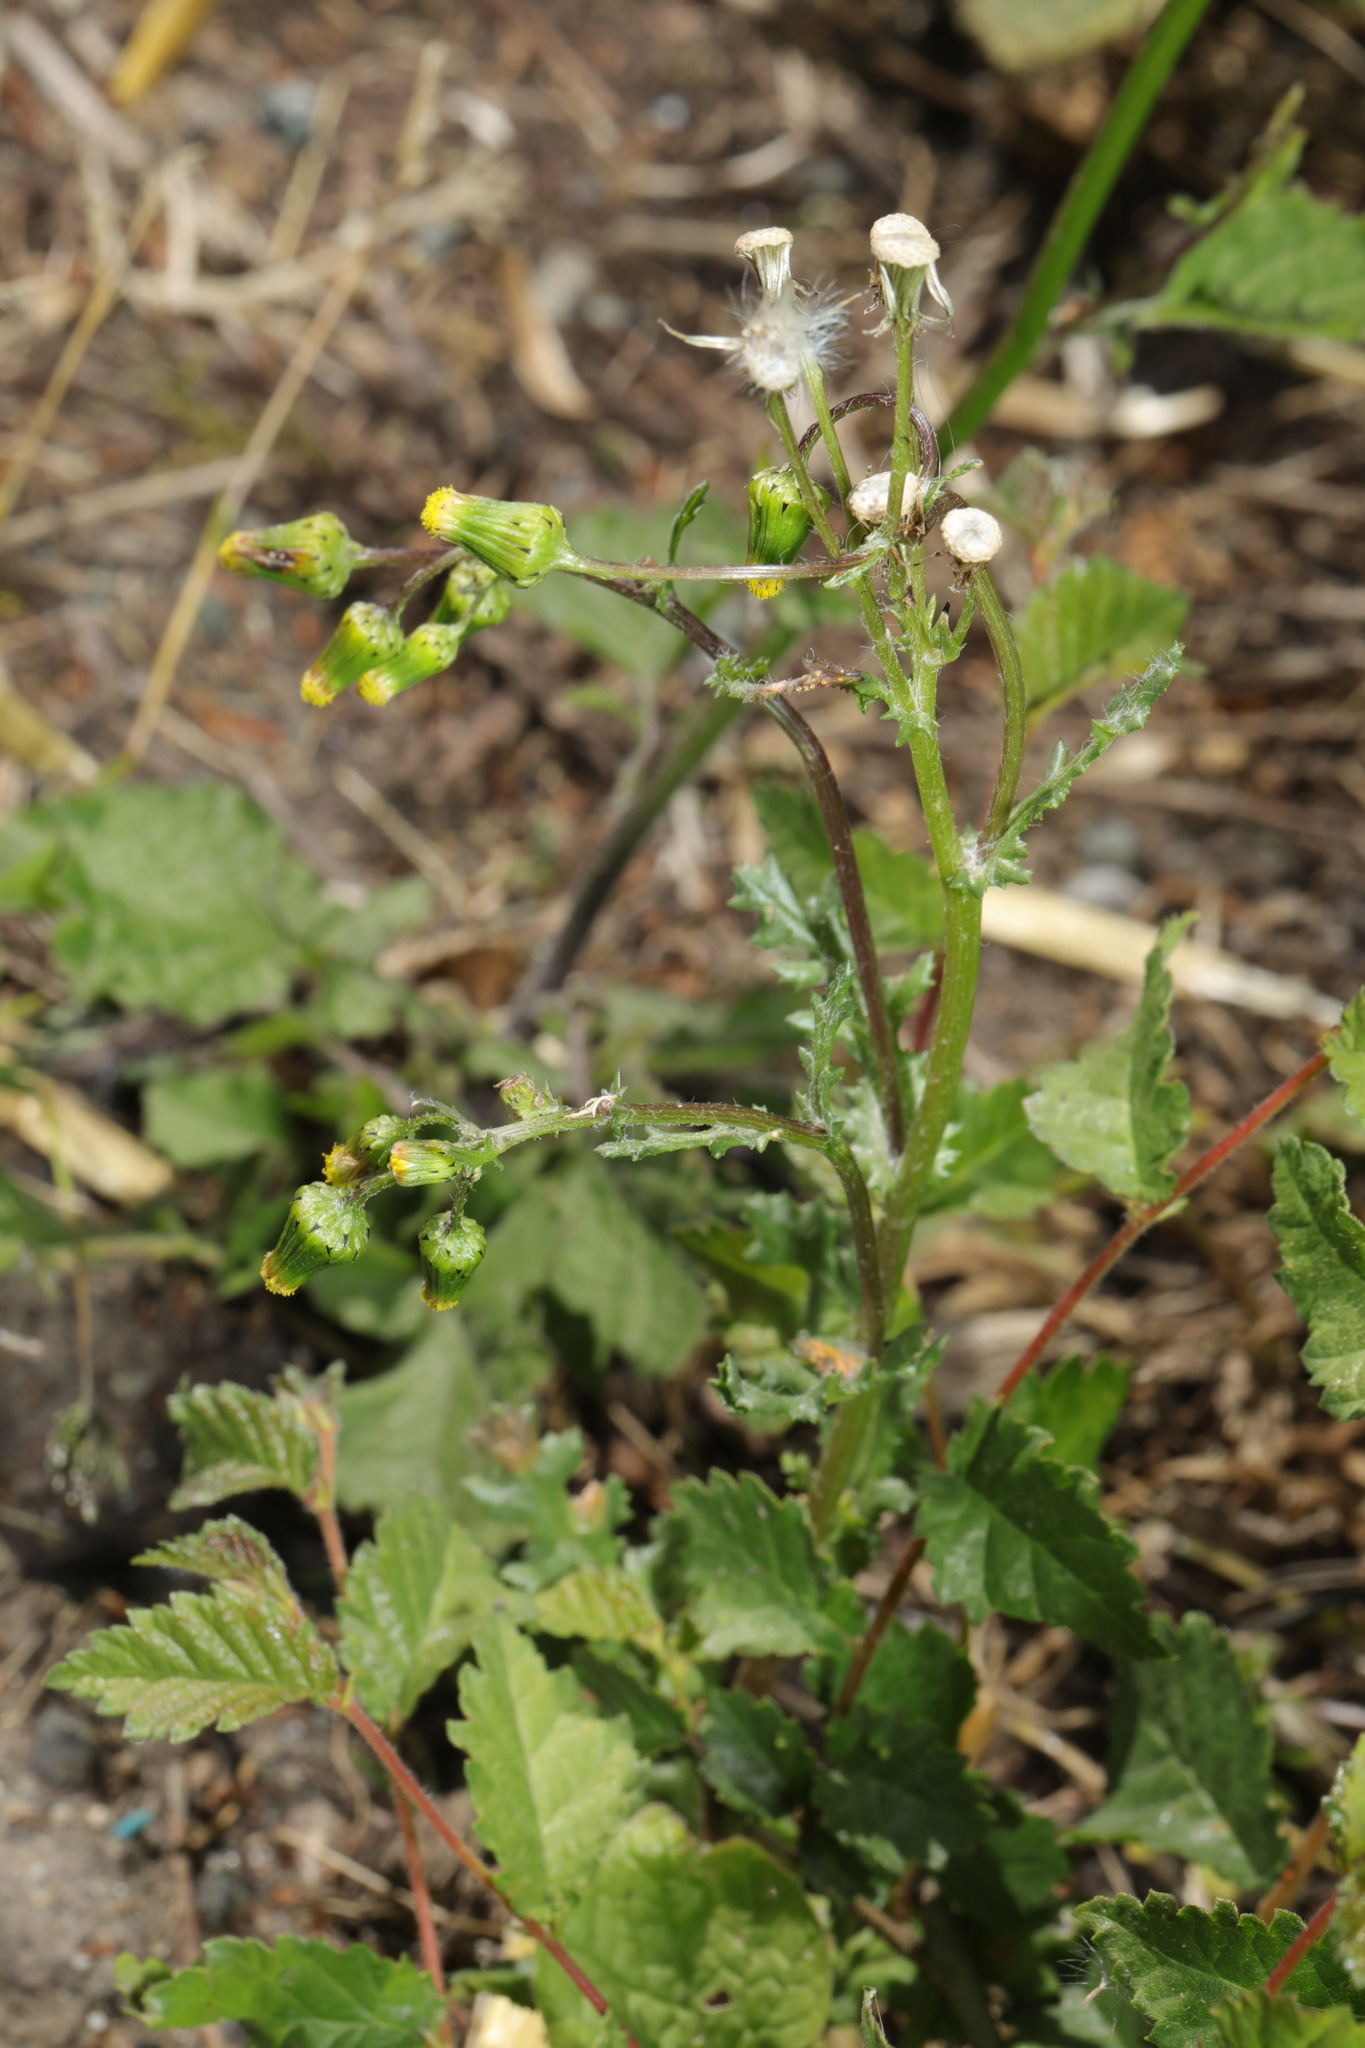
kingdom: Plantae
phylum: Tracheophyta
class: Magnoliopsida
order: Asterales
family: Asteraceae
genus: Senecio
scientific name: Senecio vulgaris
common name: Old-man-in-the-spring
